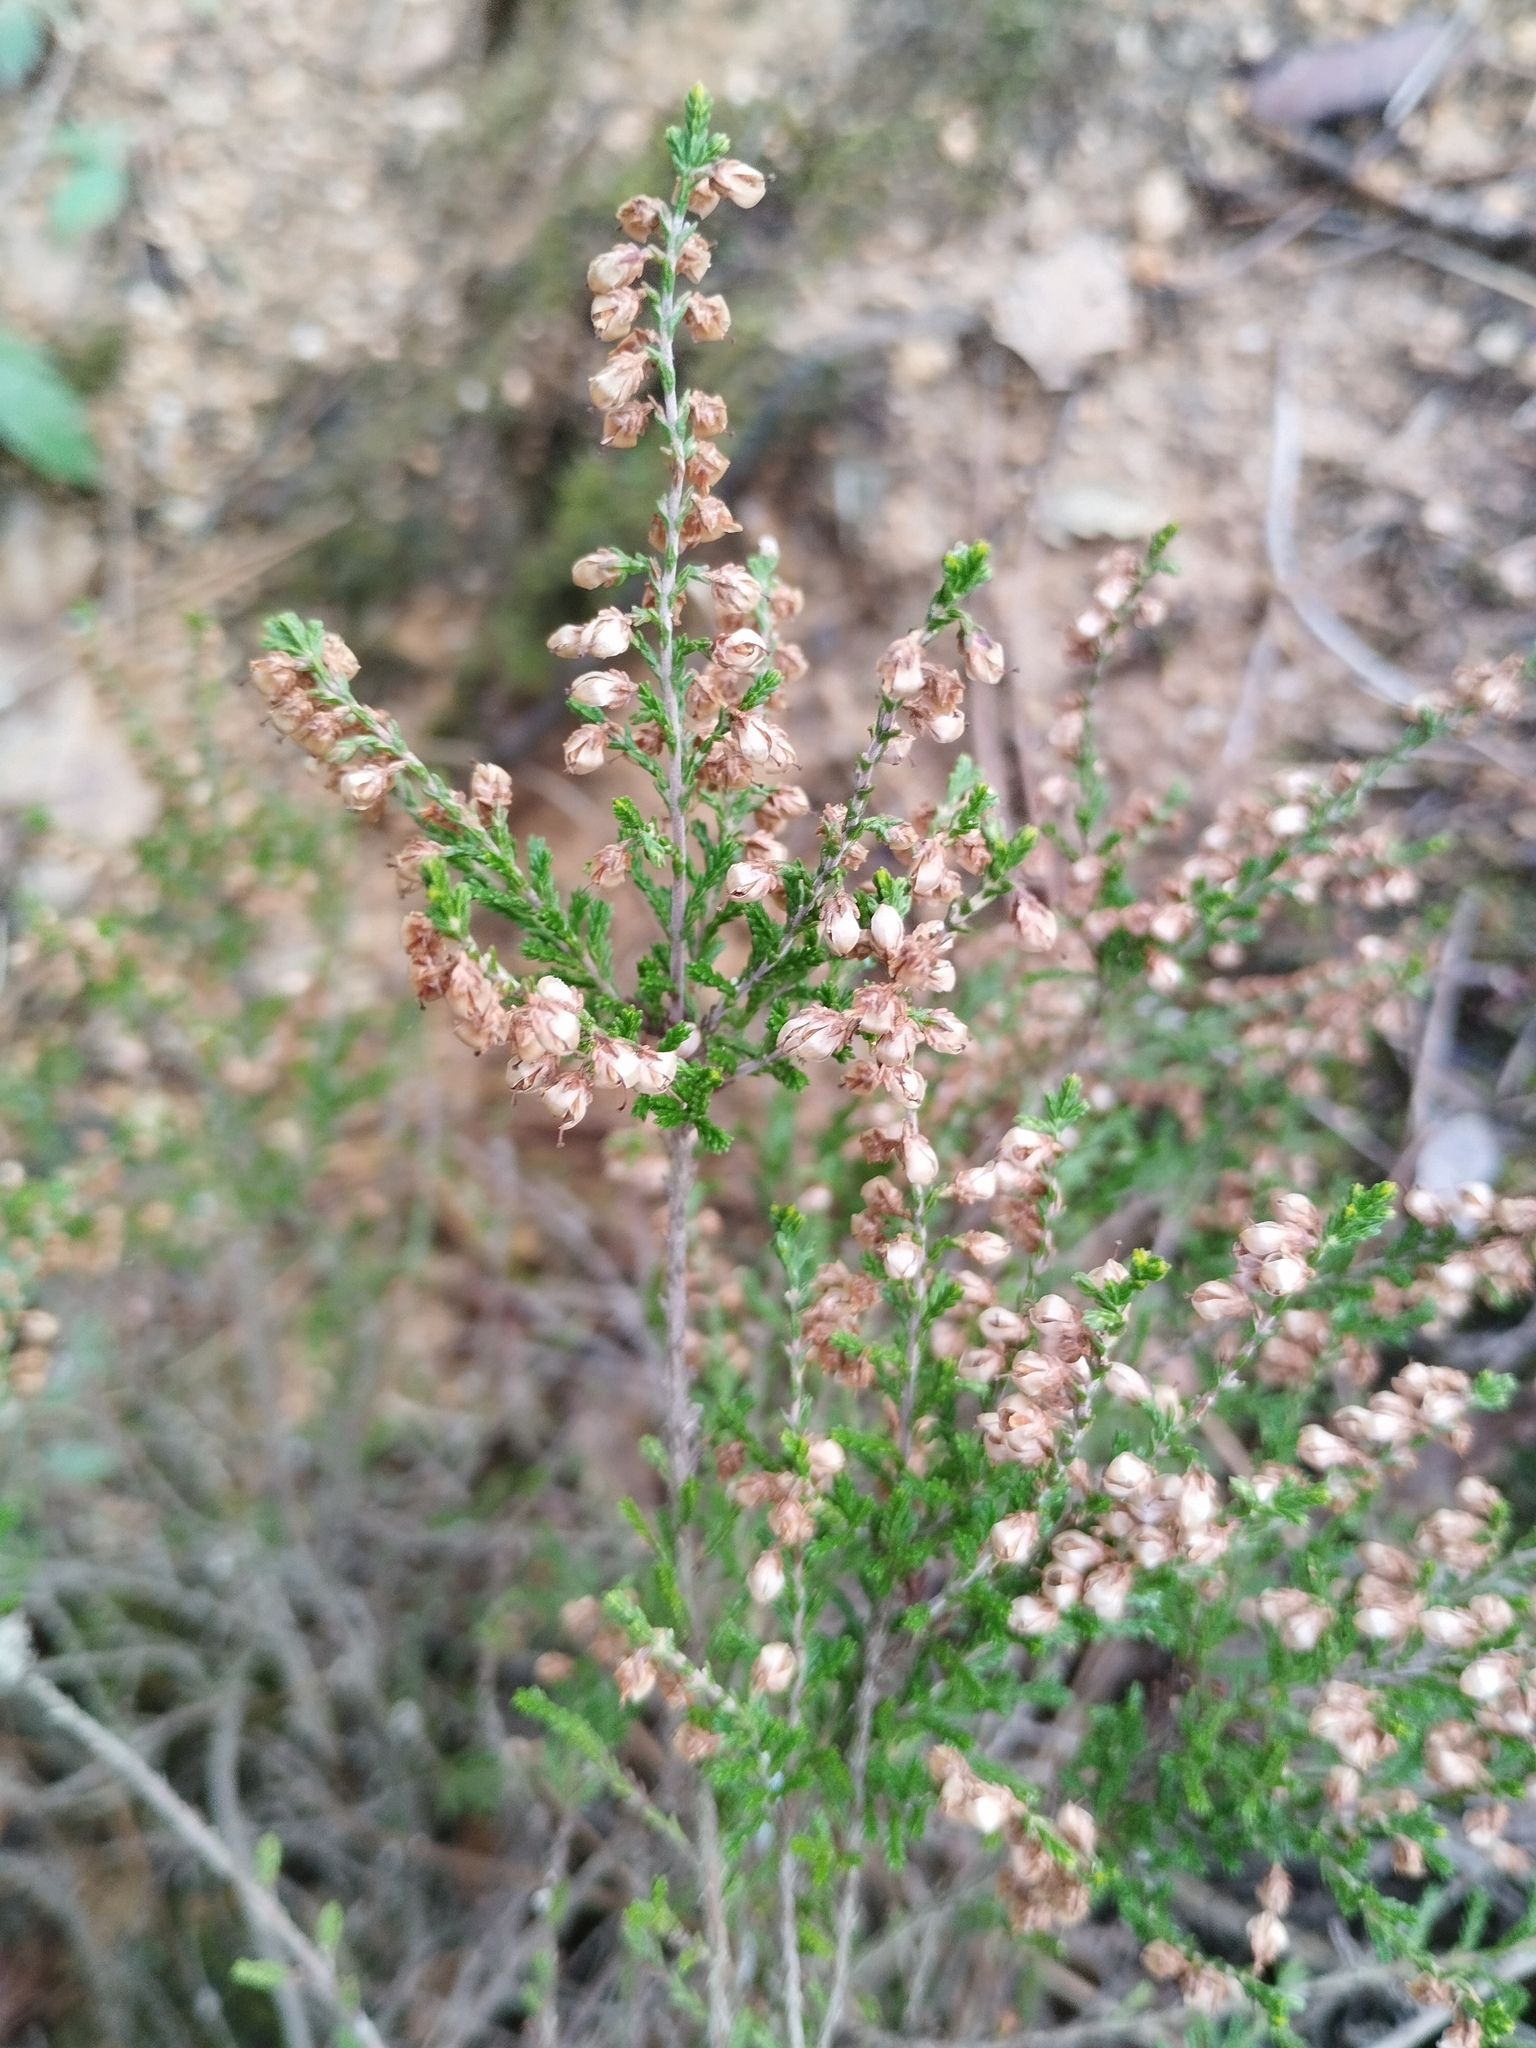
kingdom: Plantae
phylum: Tracheophyta
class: Magnoliopsida
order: Ericales
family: Ericaceae
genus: Calluna
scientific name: Calluna vulgaris
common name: Heather
